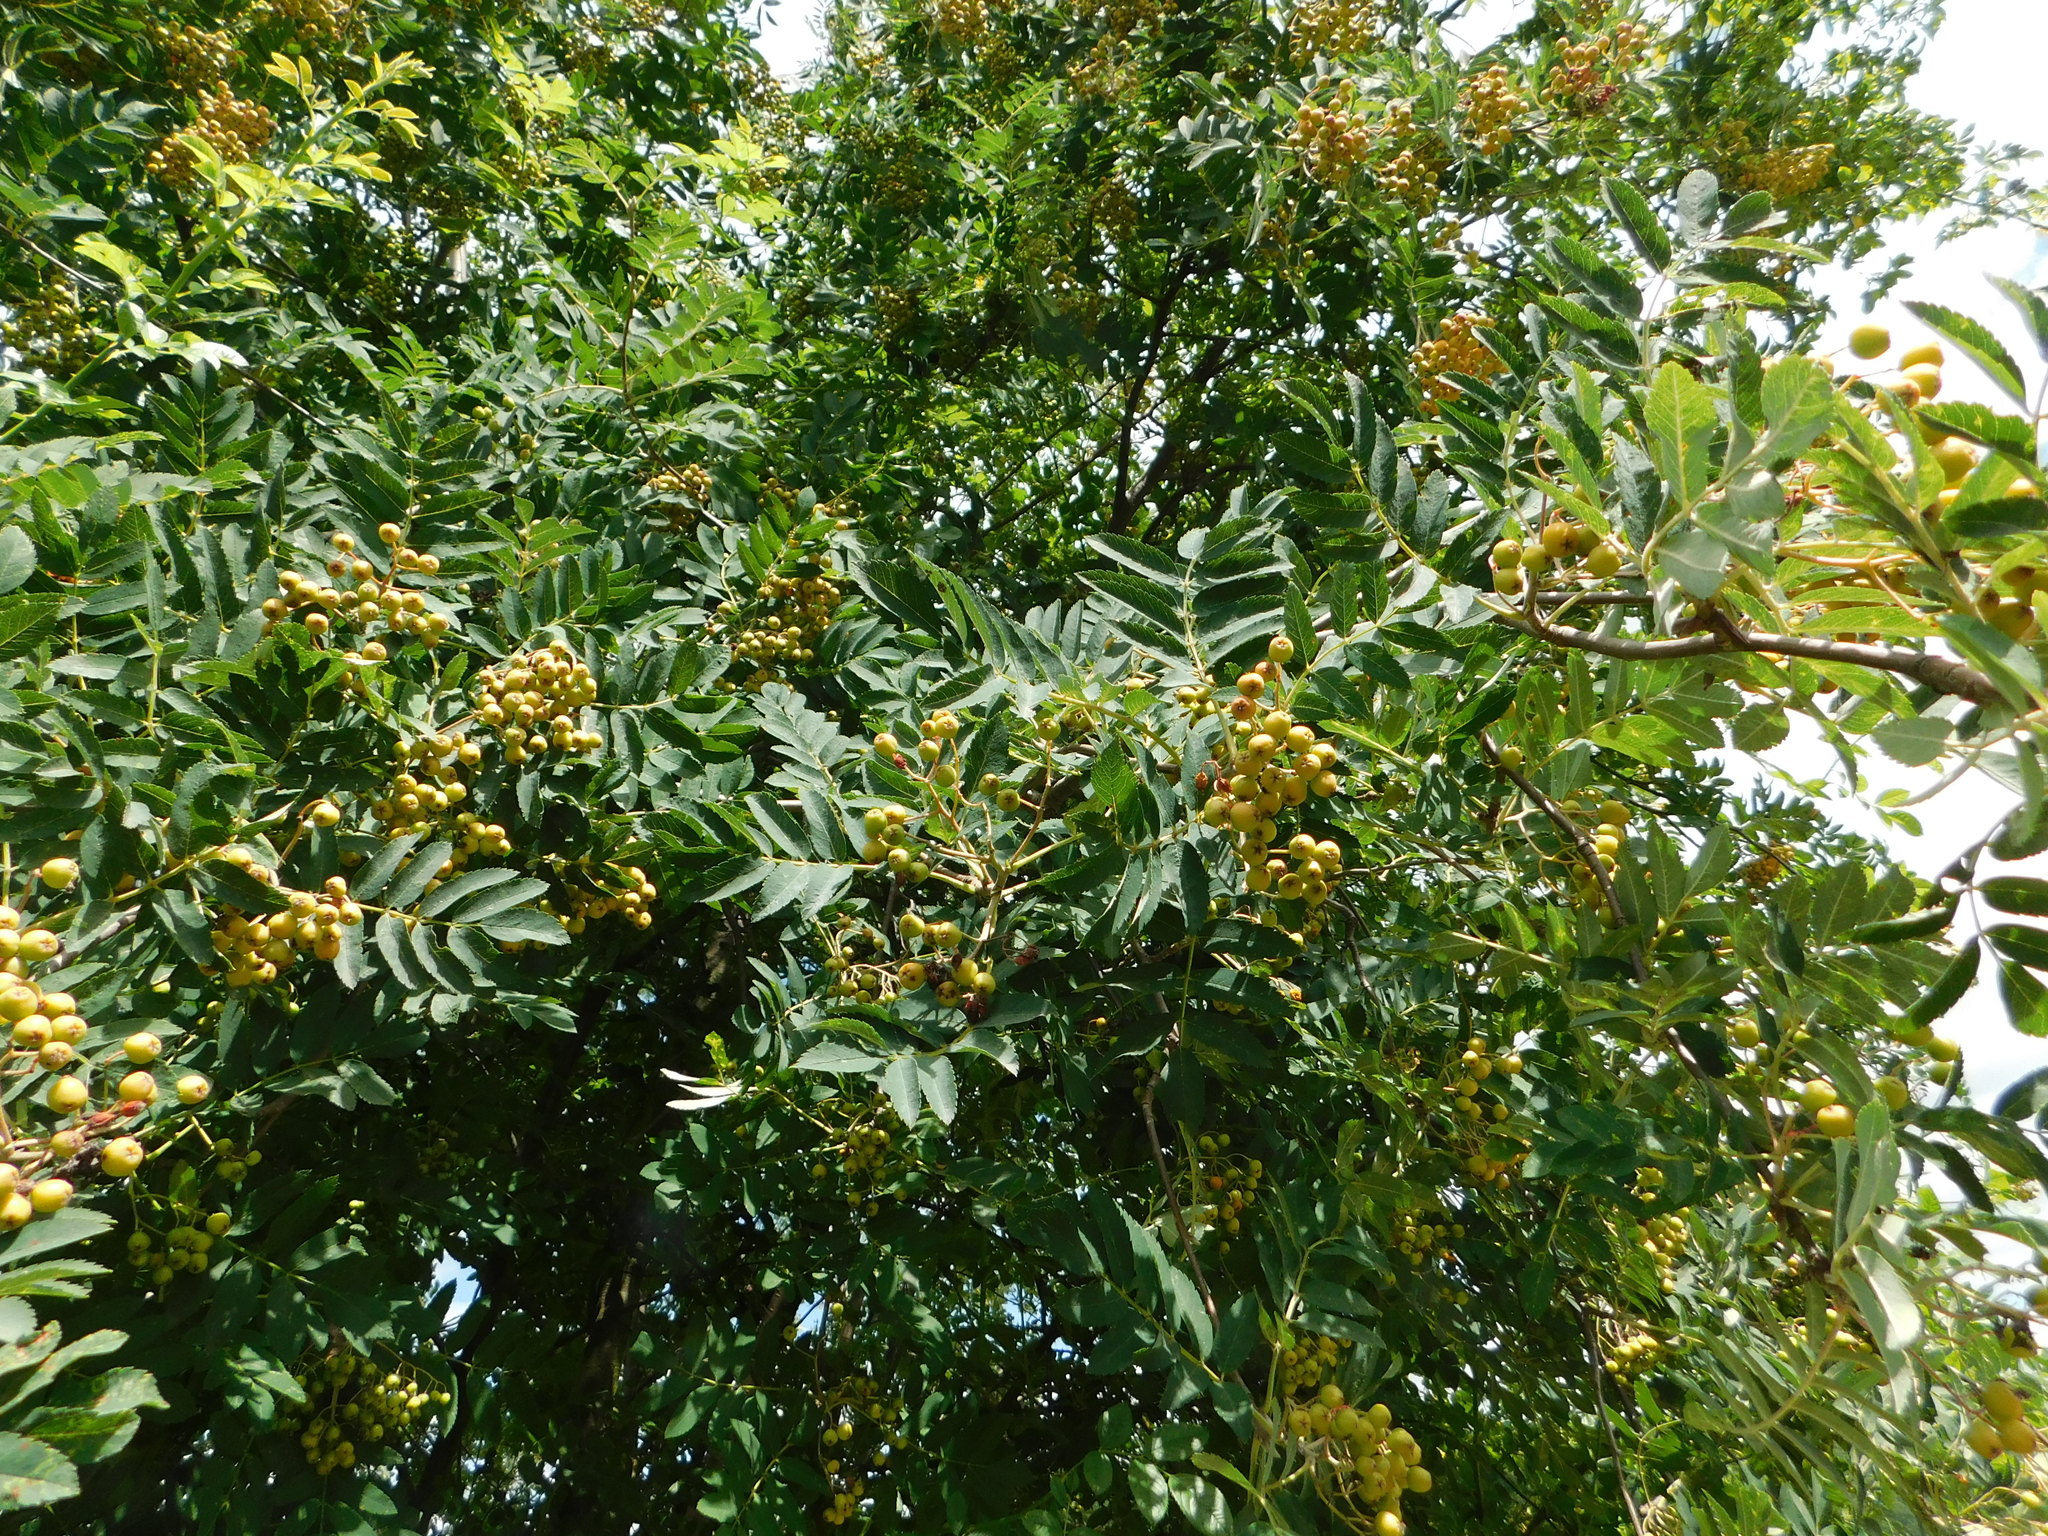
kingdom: Plantae
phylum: Tracheophyta
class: Magnoliopsida
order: Rosales
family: Rosaceae
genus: Sorbus
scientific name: Sorbus aucuparia
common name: Rowan
